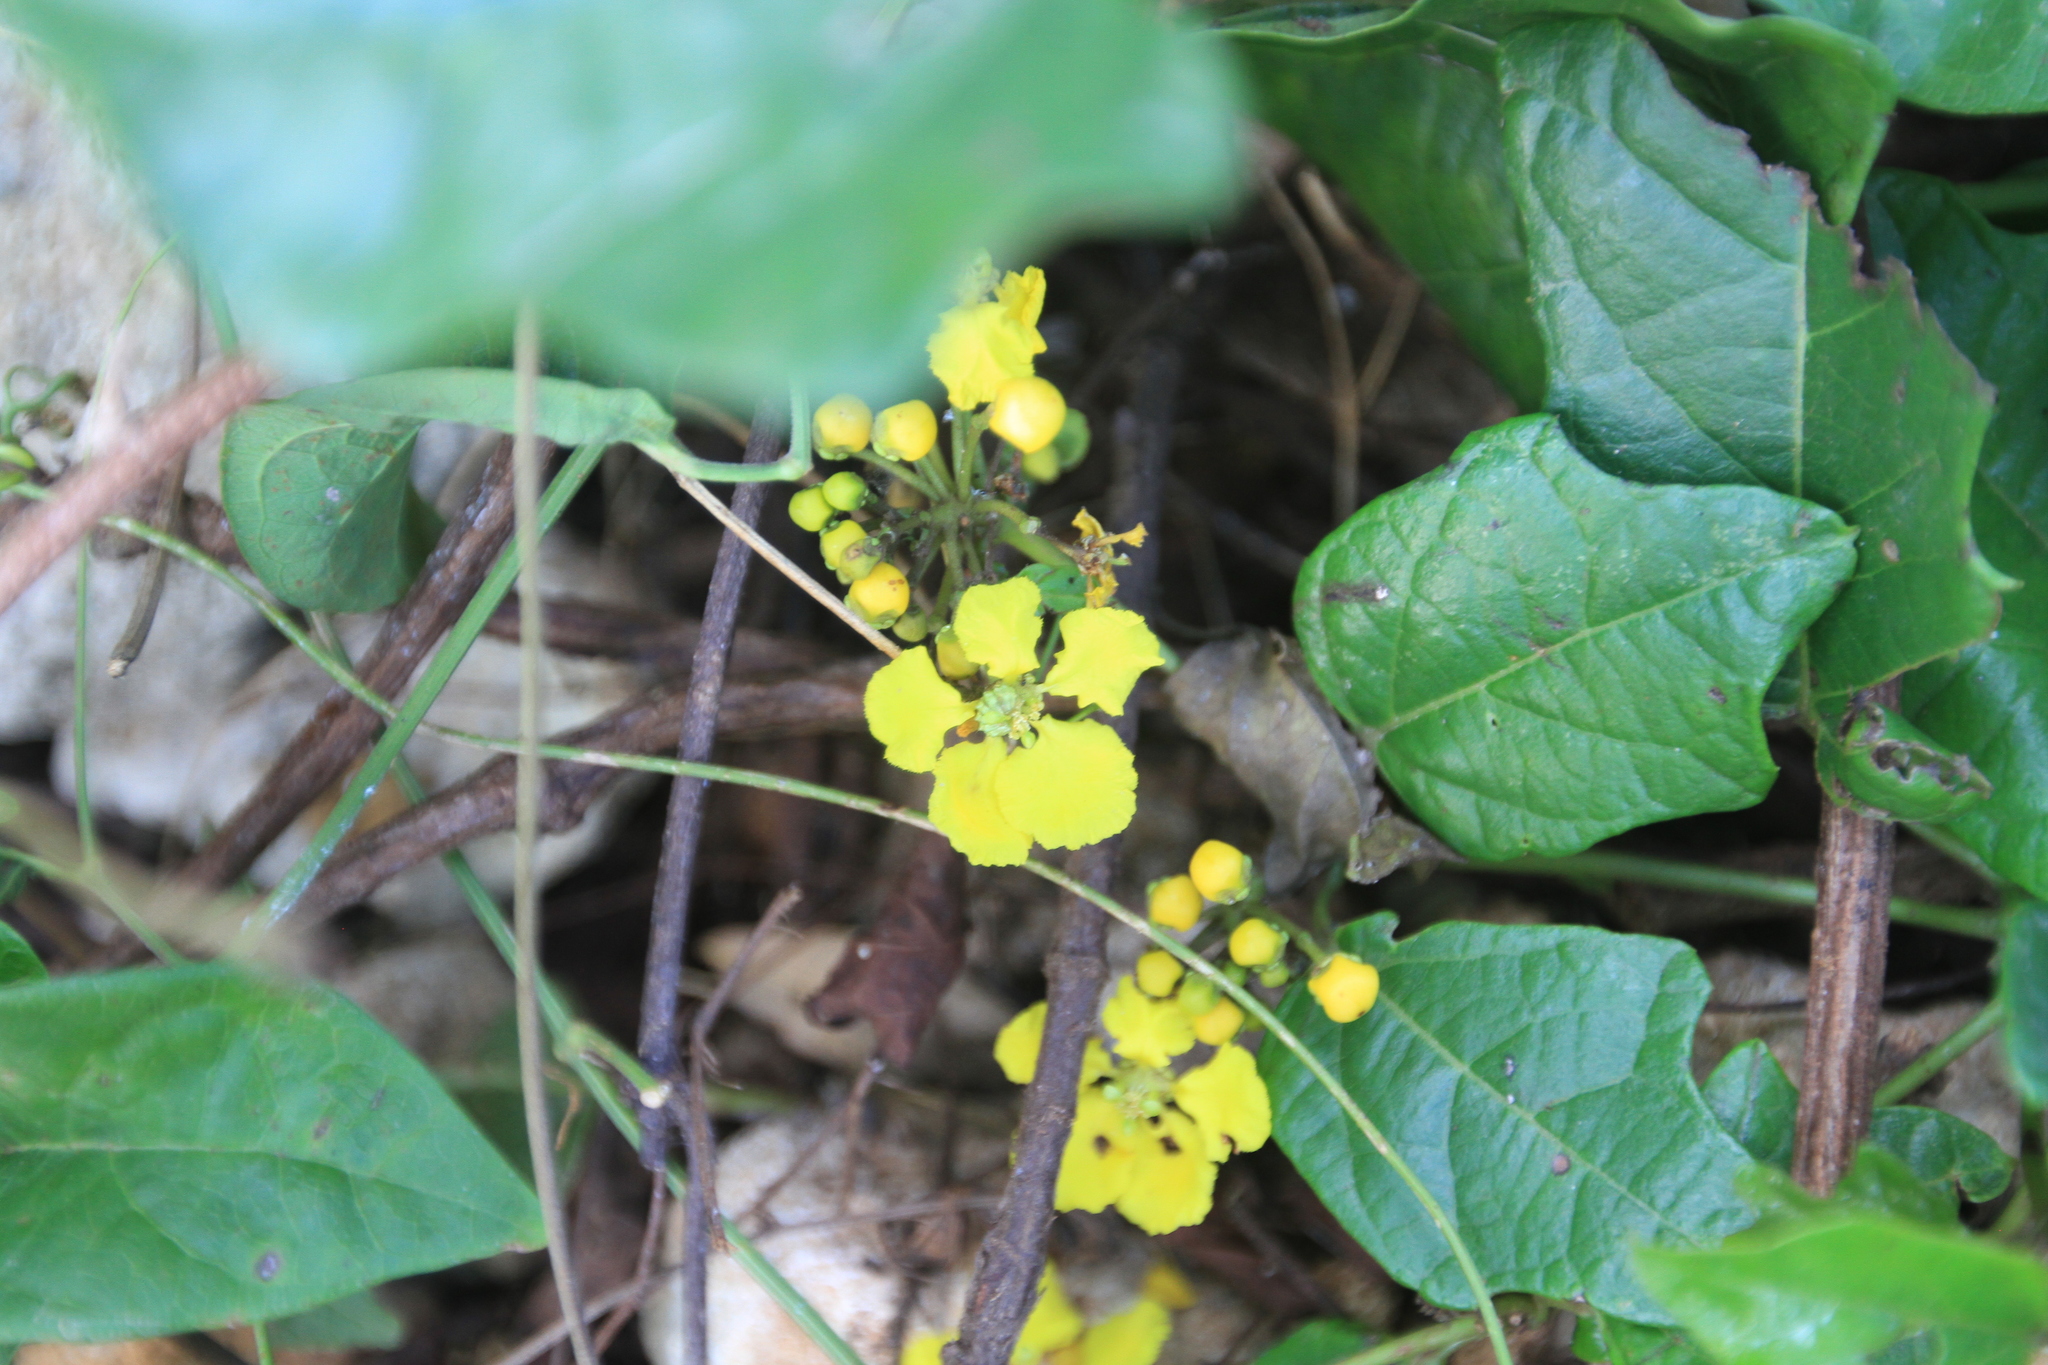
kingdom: Plantae
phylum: Tracheophyta
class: Magnoliopsida
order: Malpighiales
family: Malpighiaceae
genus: Stigmaphyllon
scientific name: Stigmaphyllon angulosum
